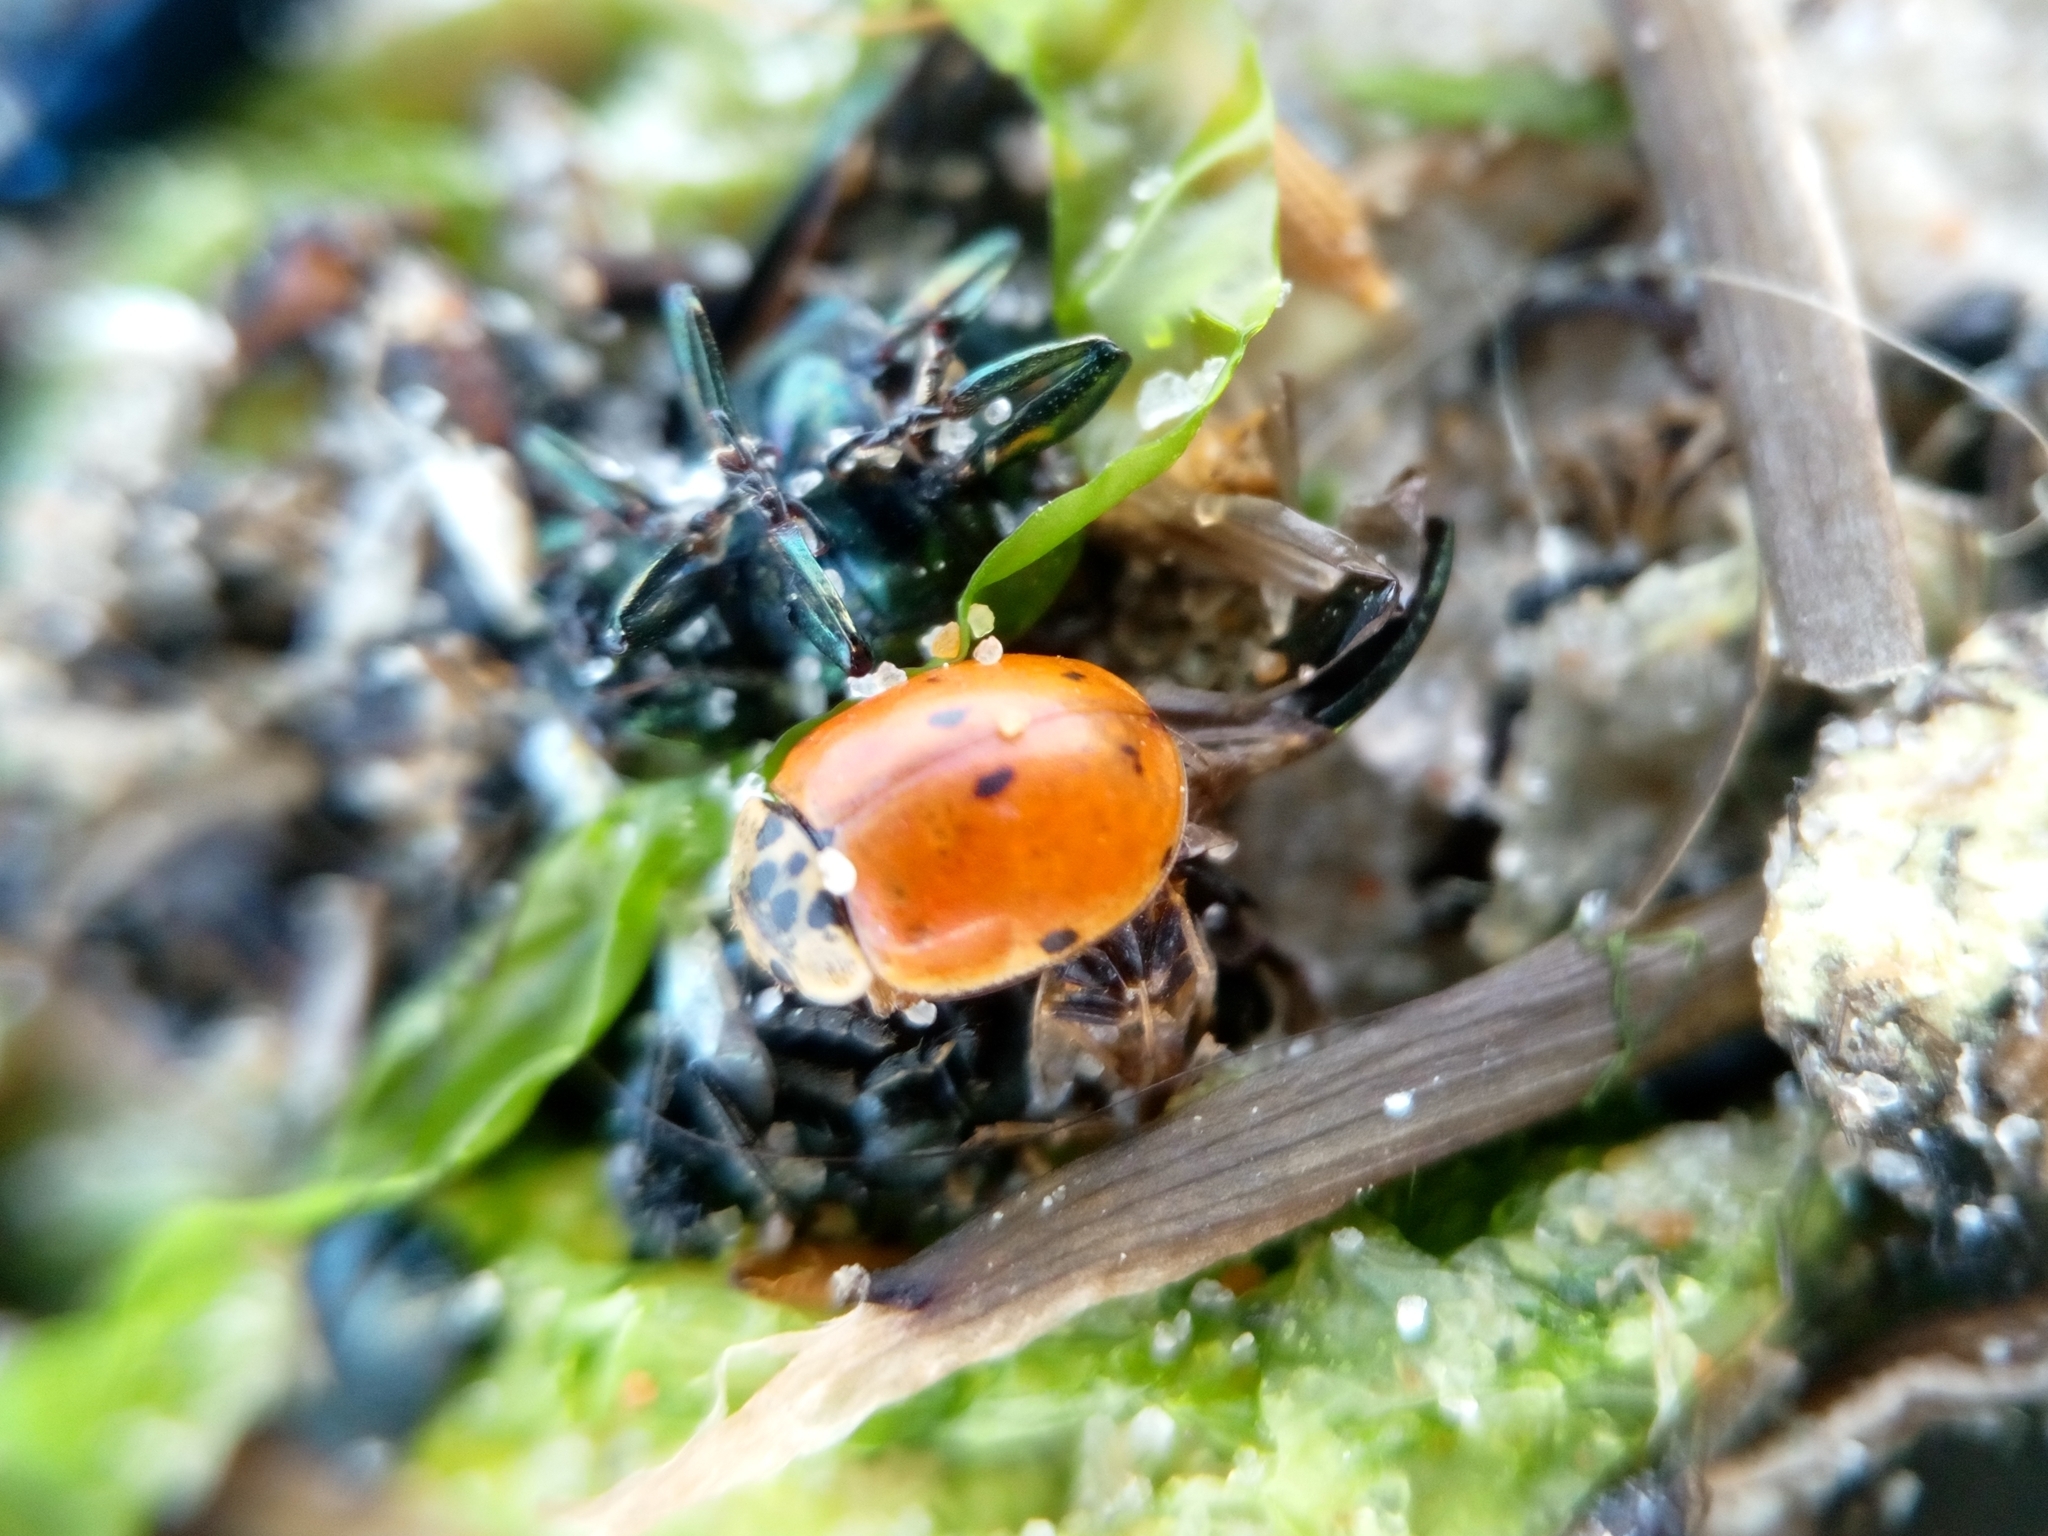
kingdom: Animalia
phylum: Arthropoda
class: Insecta
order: Coleoptera
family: Coccinellidae
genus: Adalia
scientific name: Adalia decempunctata
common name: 10-spot ladybird
